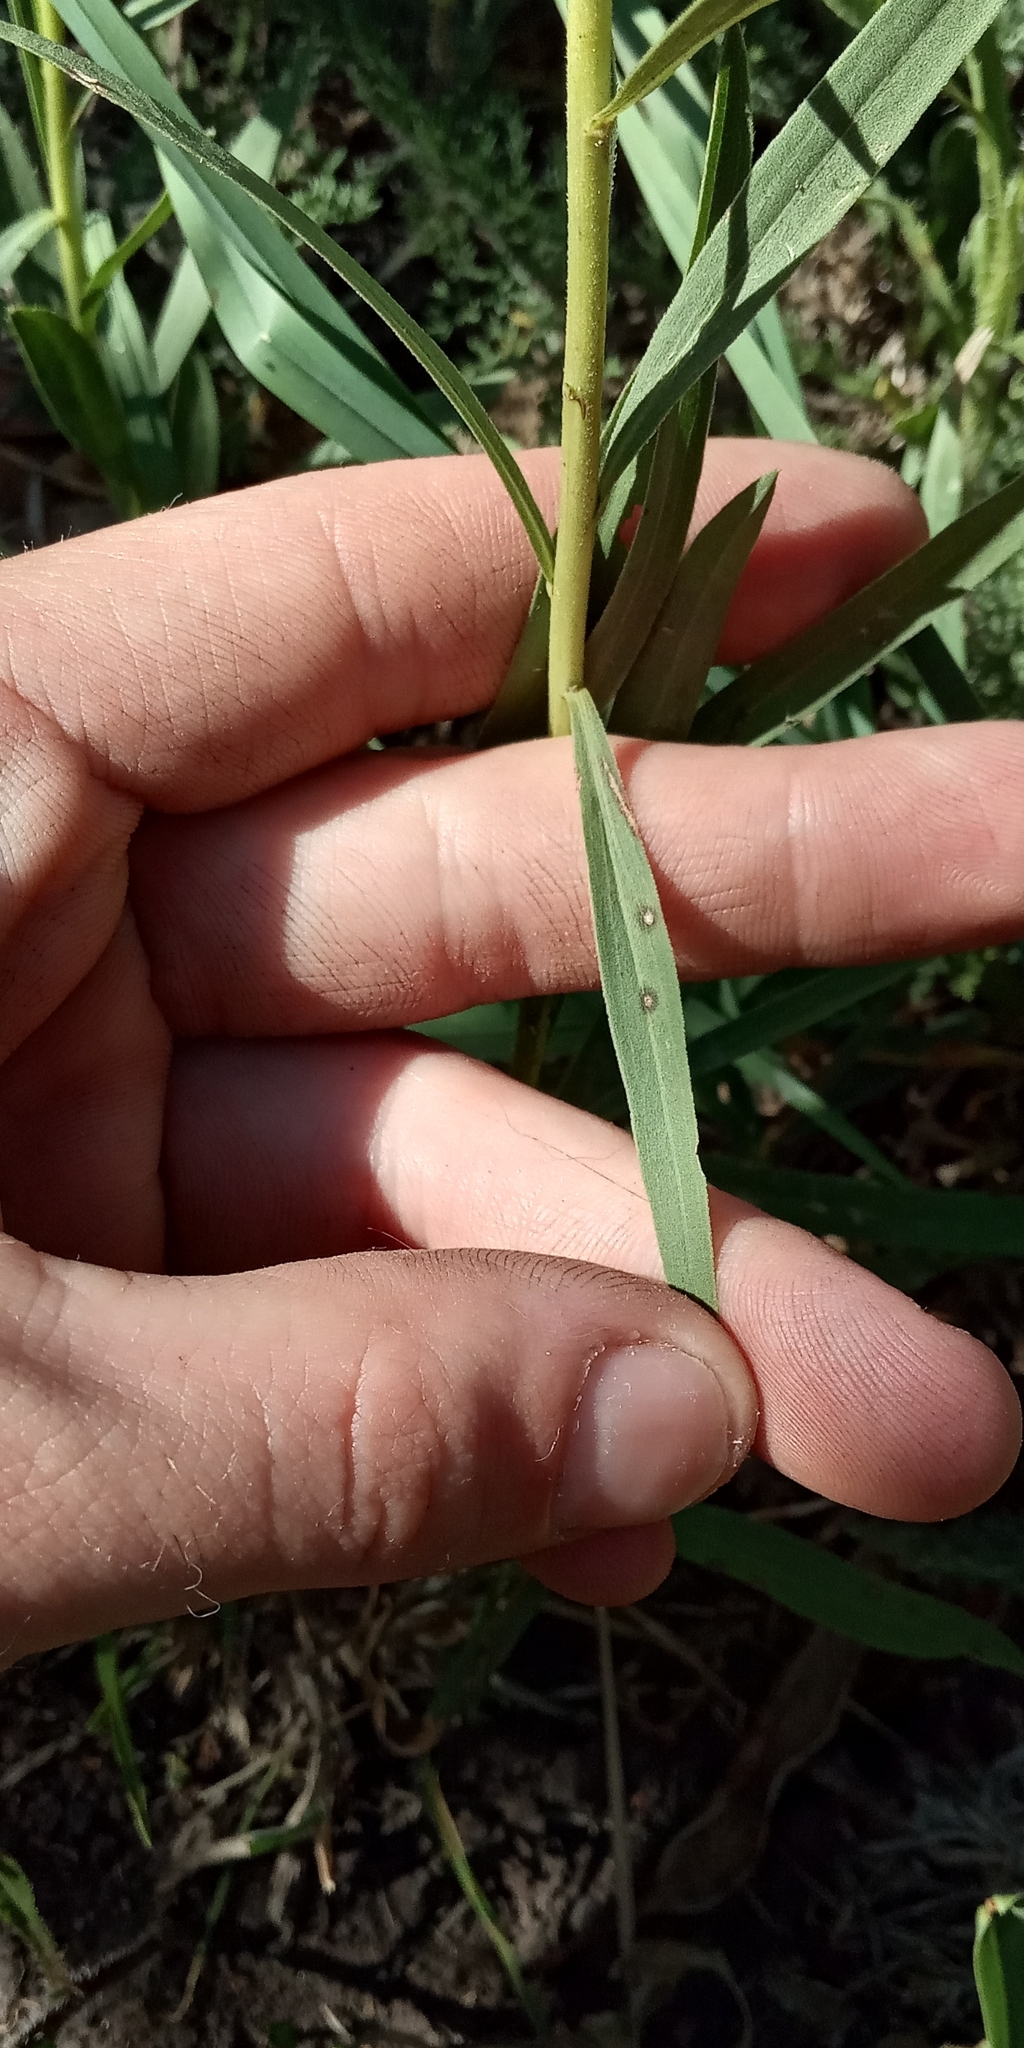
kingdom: Plantae
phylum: Tracheophyta
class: Magnoliopsida
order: Asterales
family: Asteraceae
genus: Solidago
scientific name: Solidago chilensis
